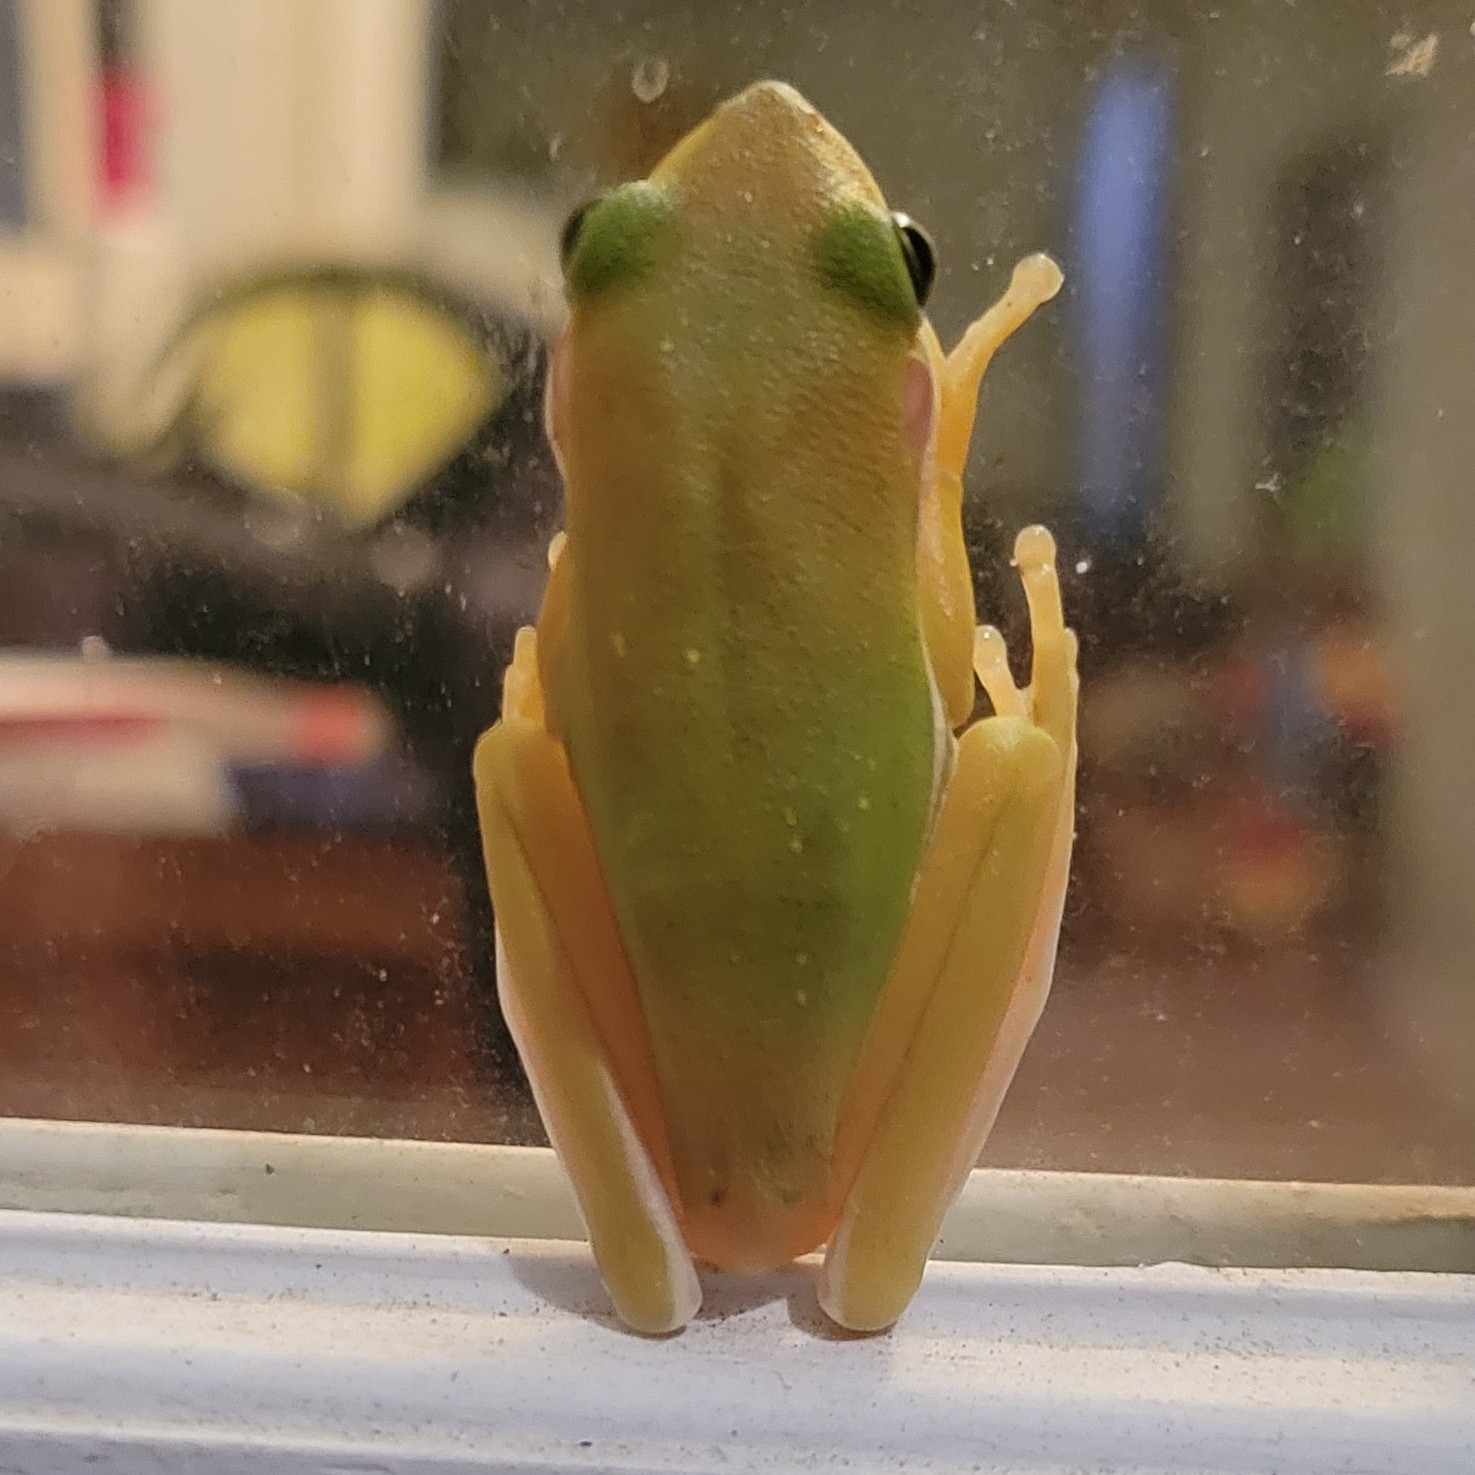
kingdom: Animalia
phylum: Chordata
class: Amphibia
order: Anura
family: Hylidae
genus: Dryophytes
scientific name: Dryophytes cinereus
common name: Green treefrog
